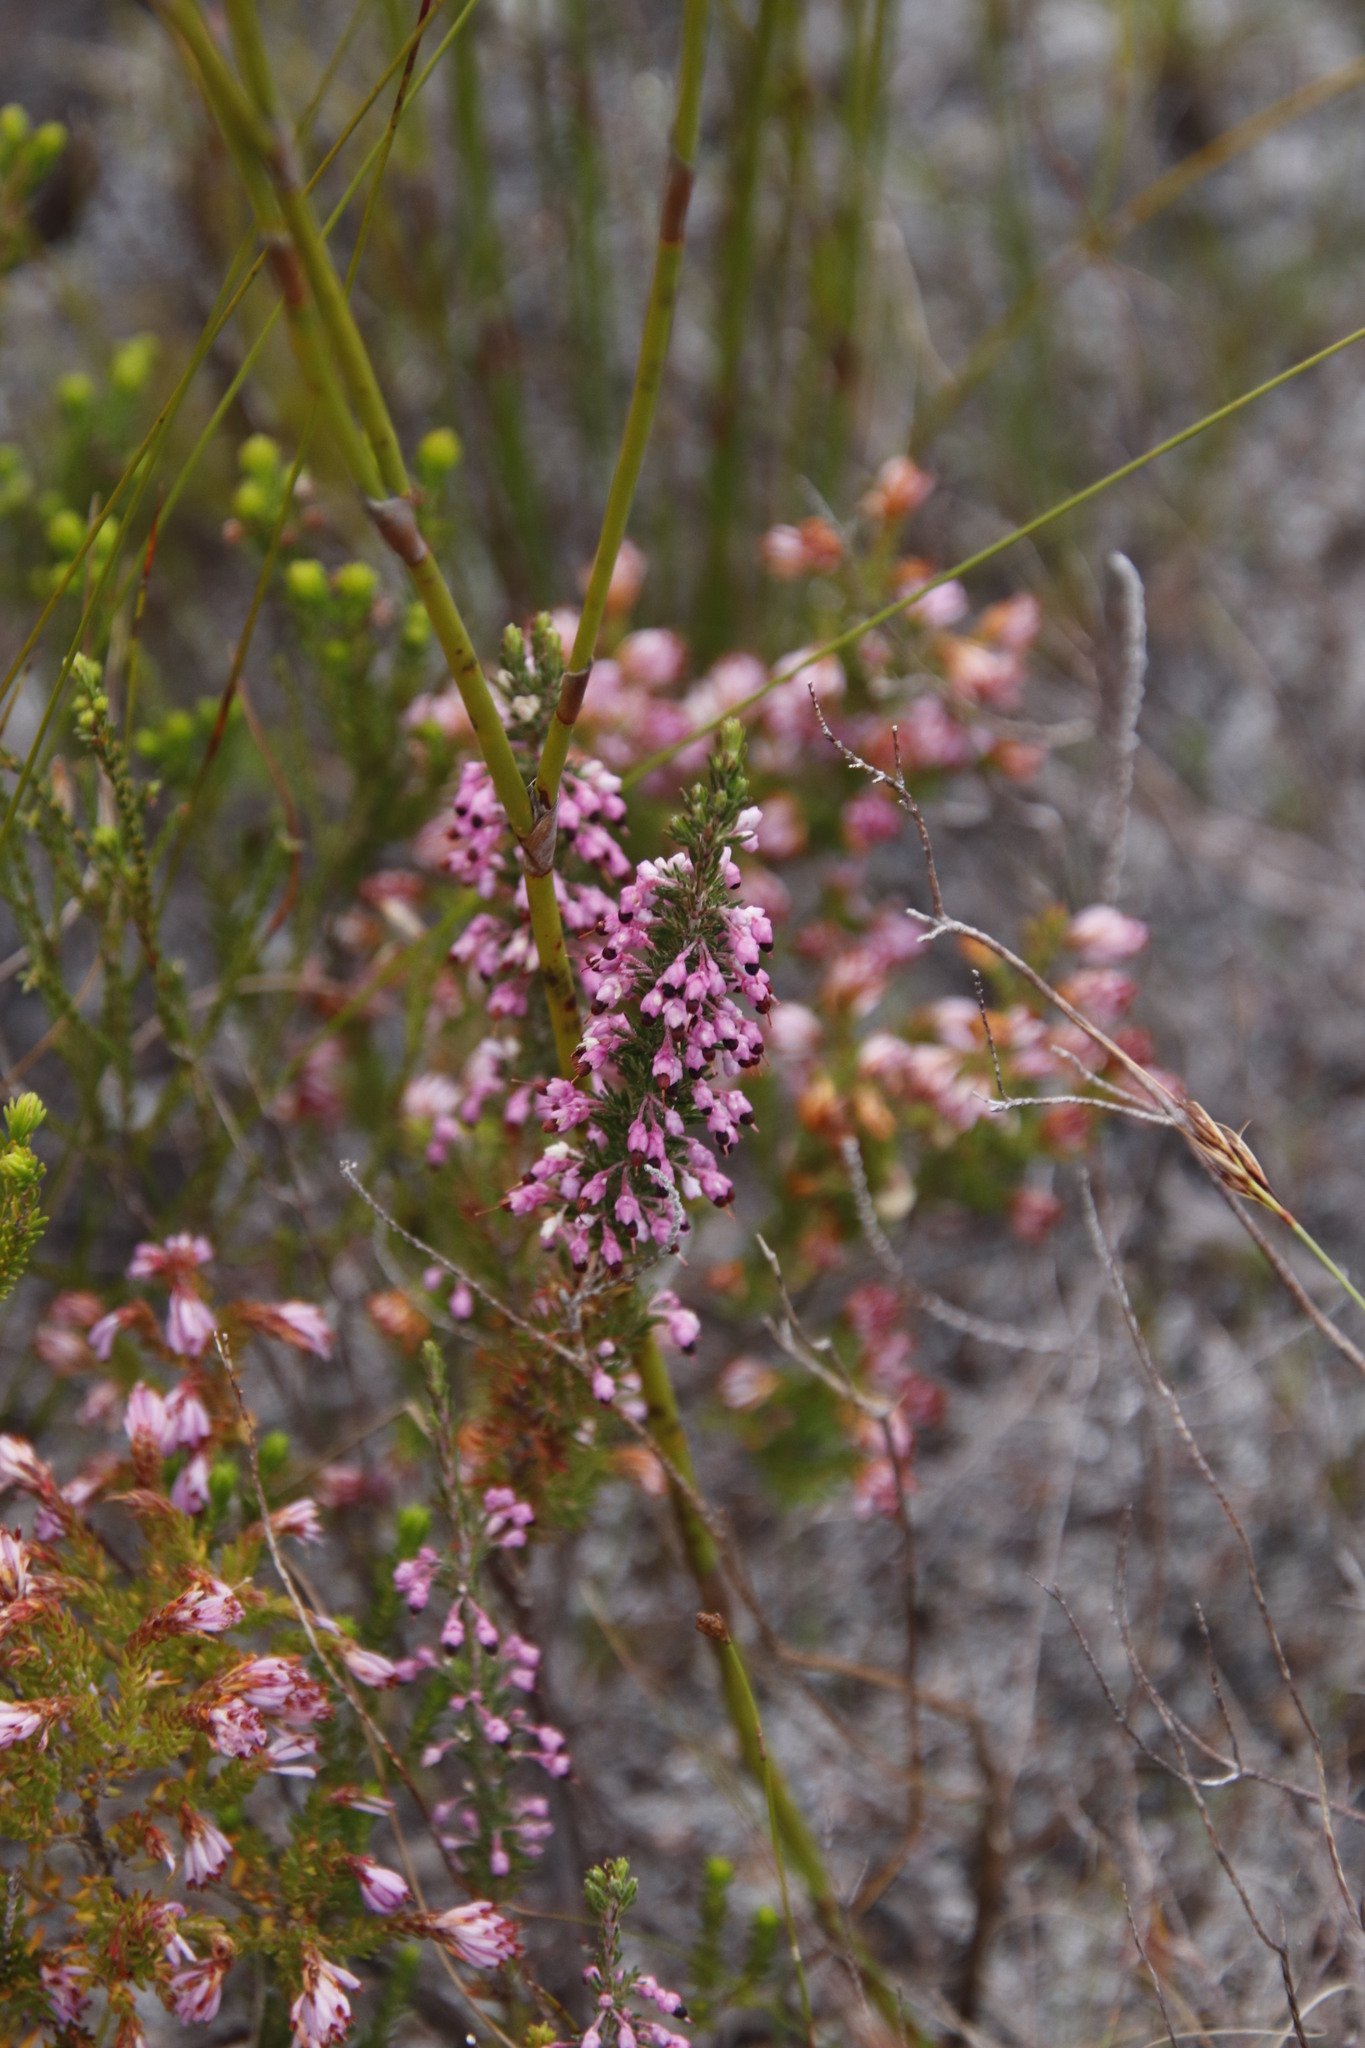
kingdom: Plantae
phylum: Tracheophyta
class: Magnoliopsida
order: Ericales
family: Ericaceae
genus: Erica
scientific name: Erica placentiflora
